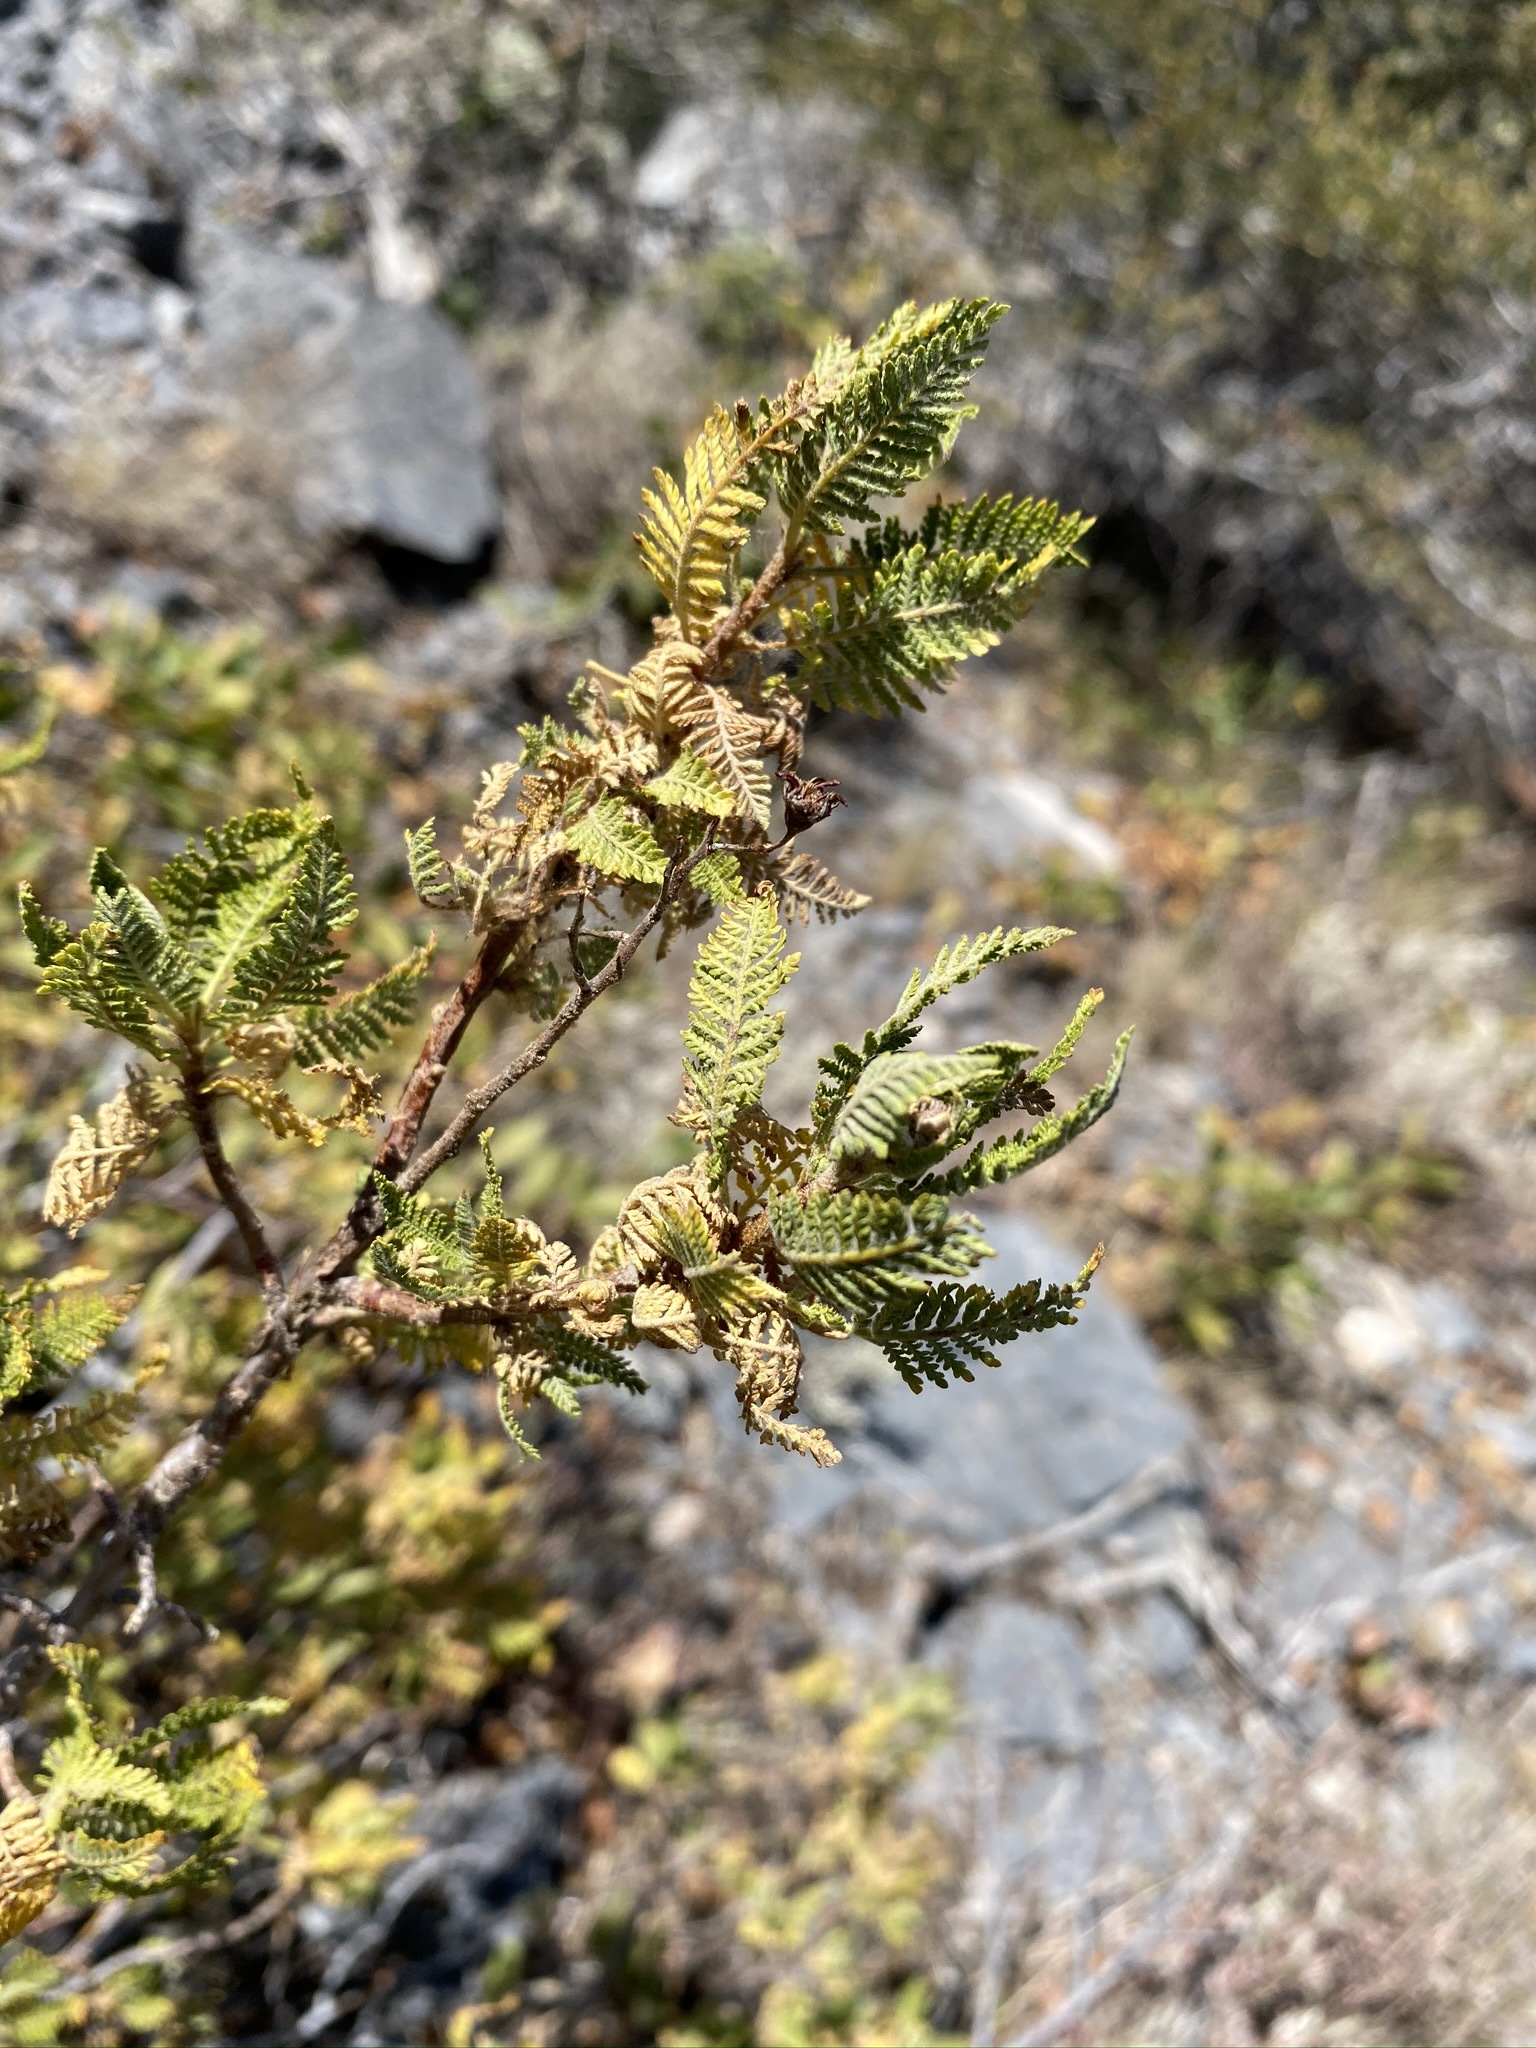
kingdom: Plantae
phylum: Tracheophyta
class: Magnoliopsida
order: Rosales
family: Rosaceae
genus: Chamaebatiaria
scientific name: Chamaebatiaria millefolium
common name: Fernbush
